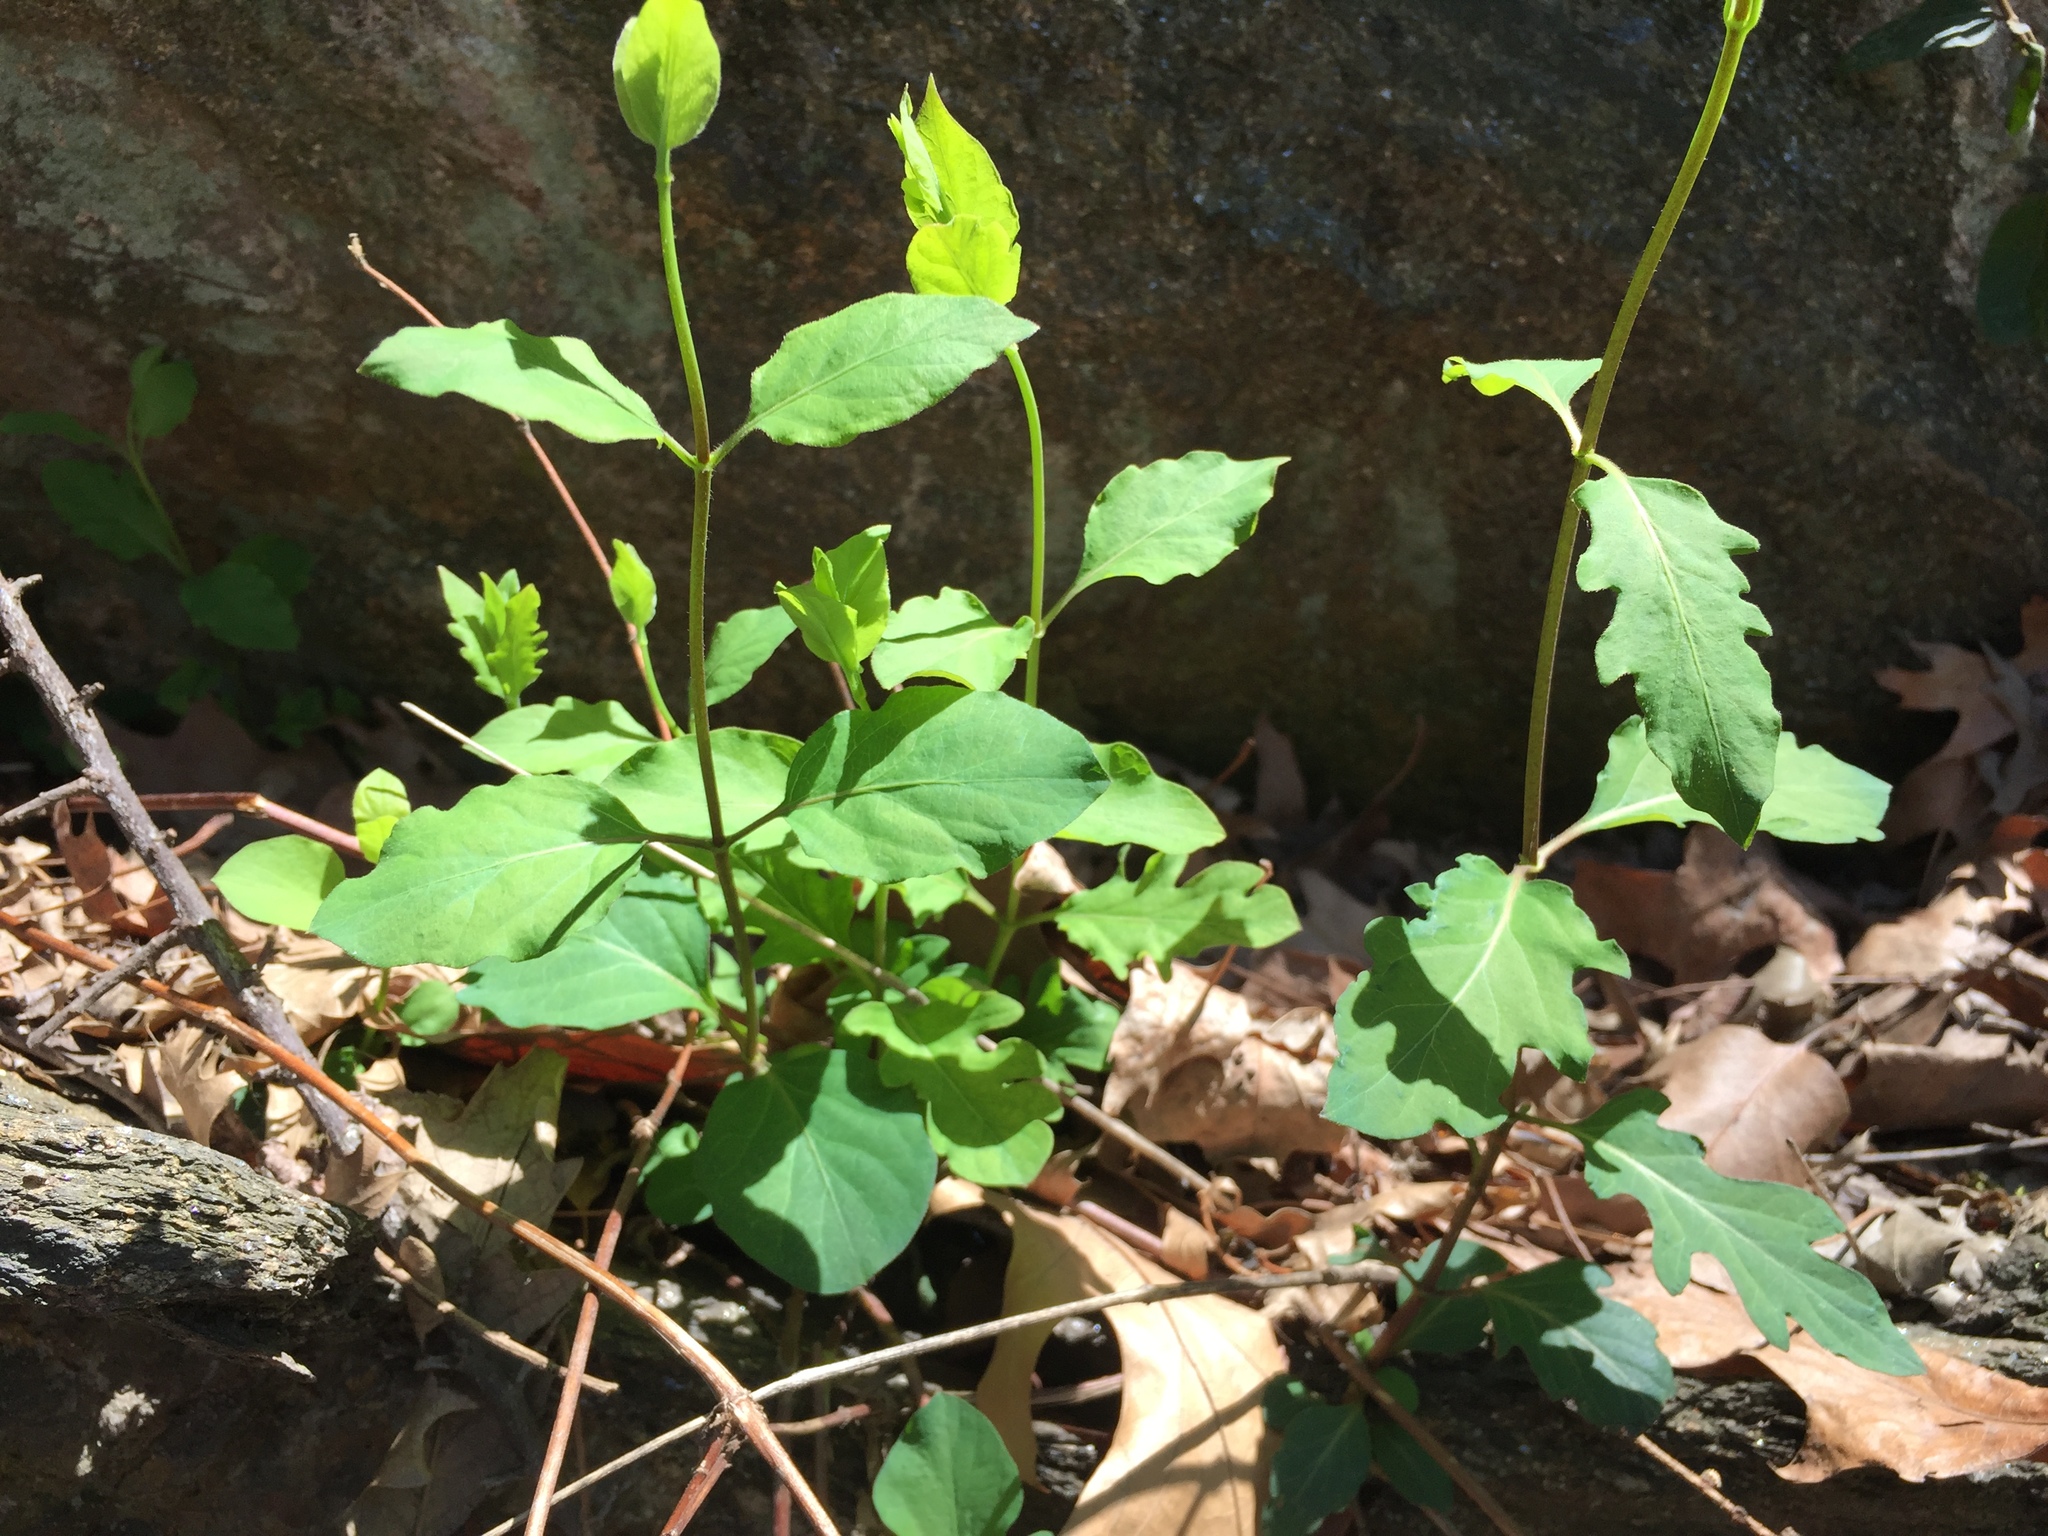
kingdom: Plantae
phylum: Tracheophyta
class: Magnoliopsida
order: Dipsacales
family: Caprifoliaceae
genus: Lonicera
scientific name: Lonicera japonica
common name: Japanese honeysuckle
